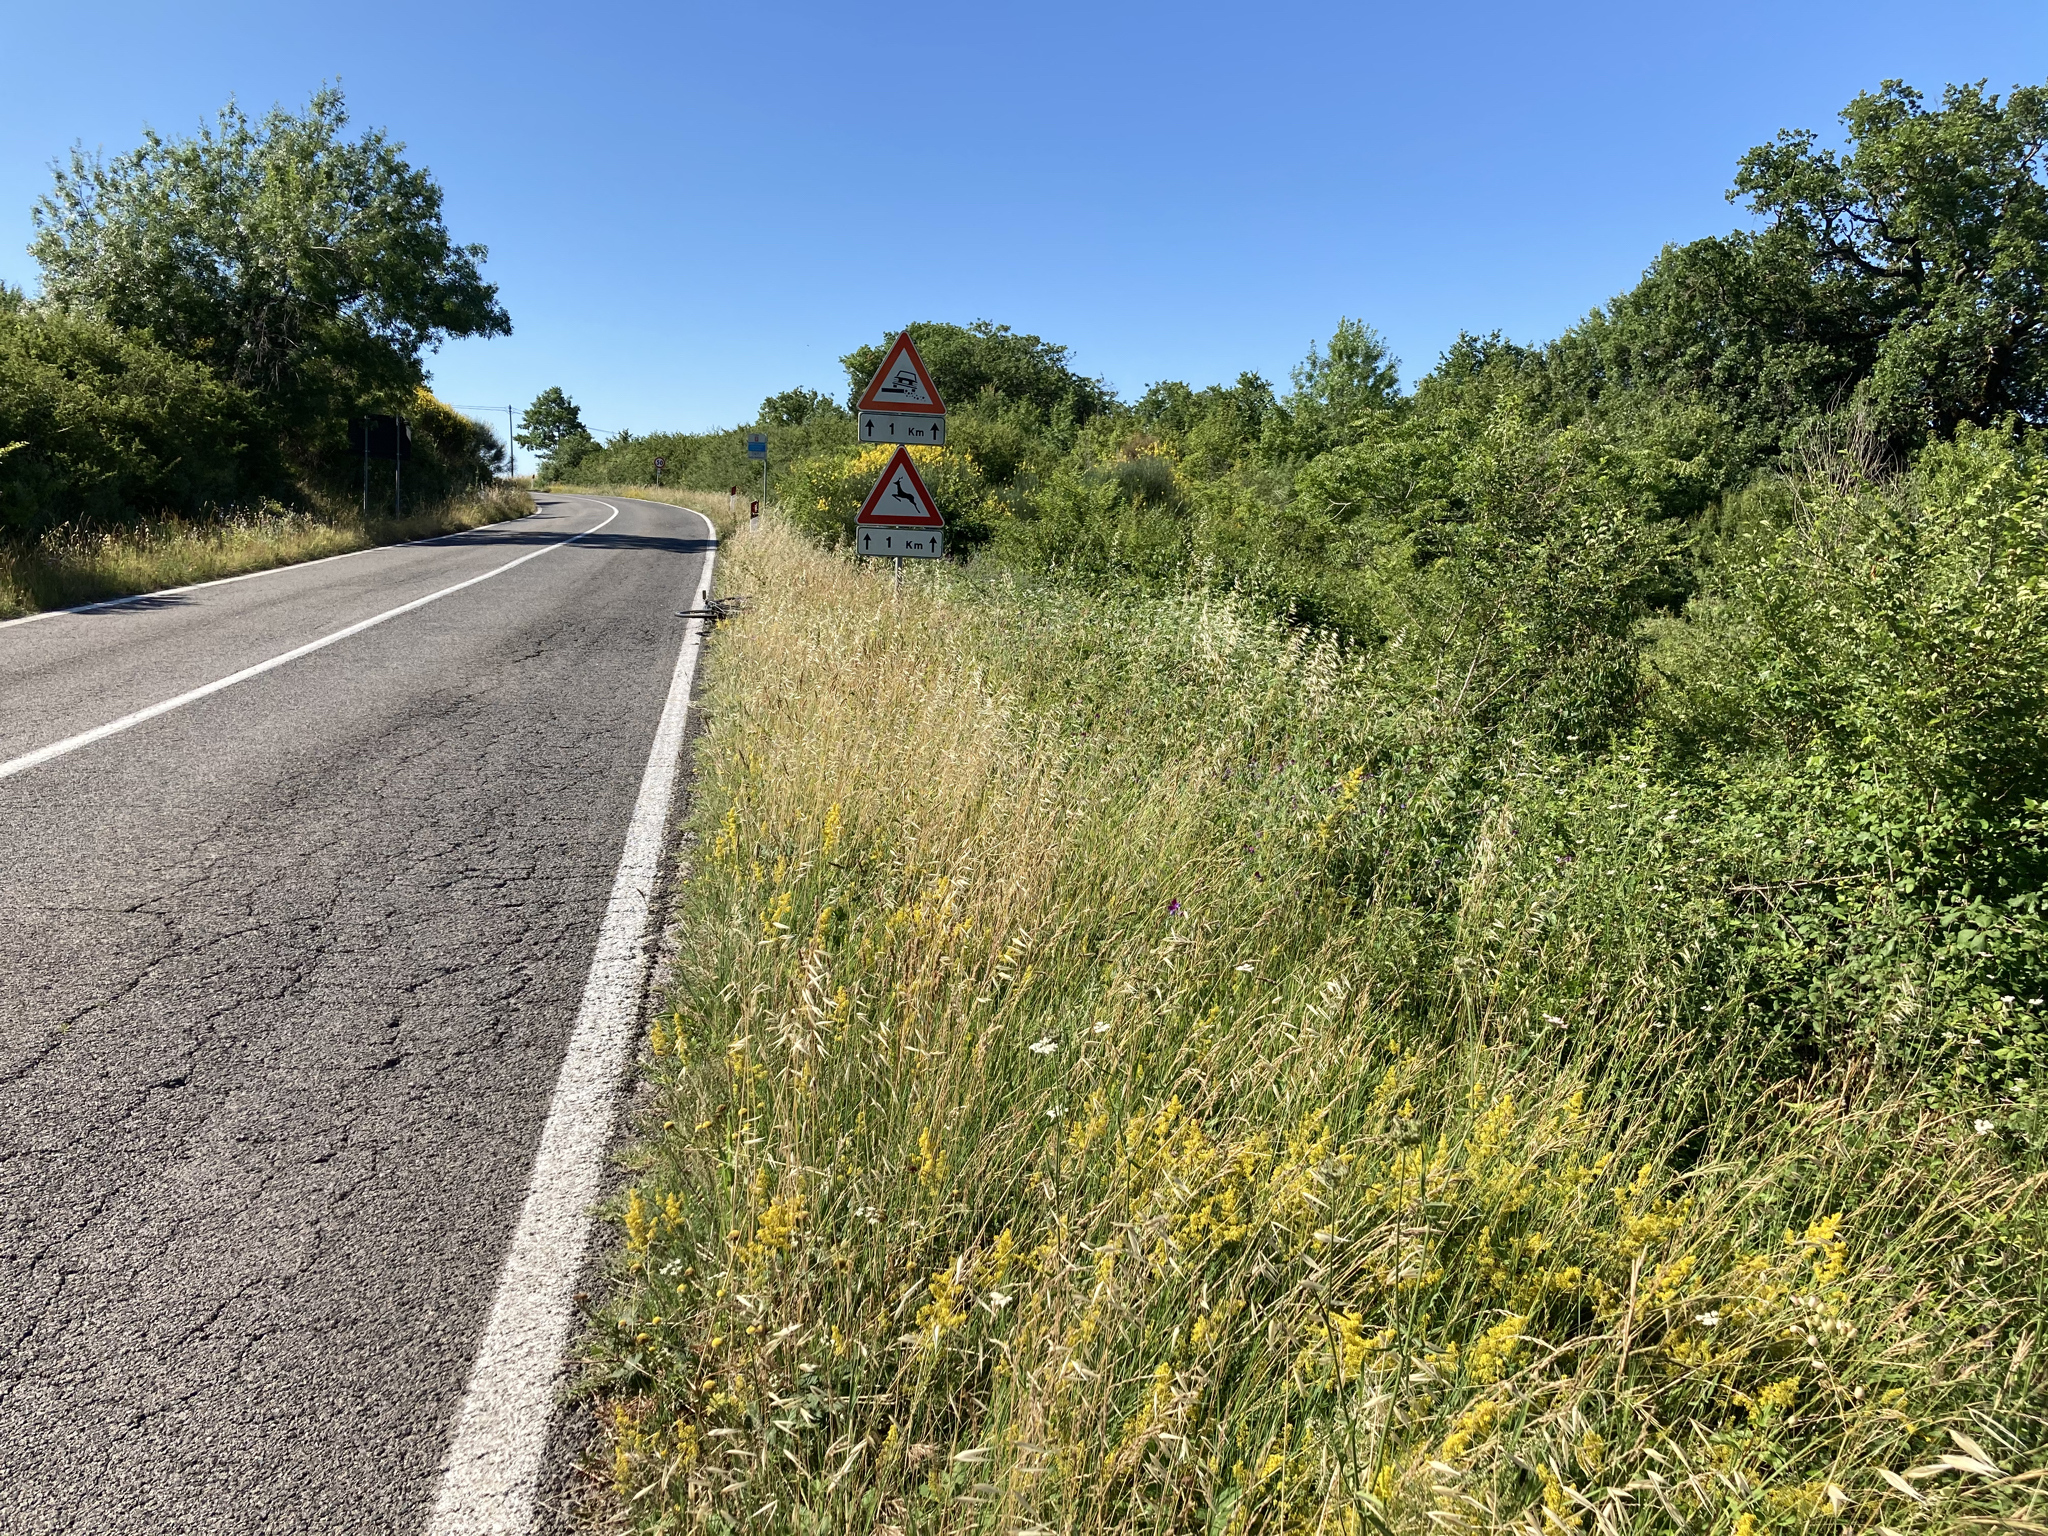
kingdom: Plantae
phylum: Tracheophyta
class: Magnoliopsida
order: Gentianales
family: Gentianaceae
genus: Blackstonia
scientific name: Blackstonia perfoliata
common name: Yellow-wort
